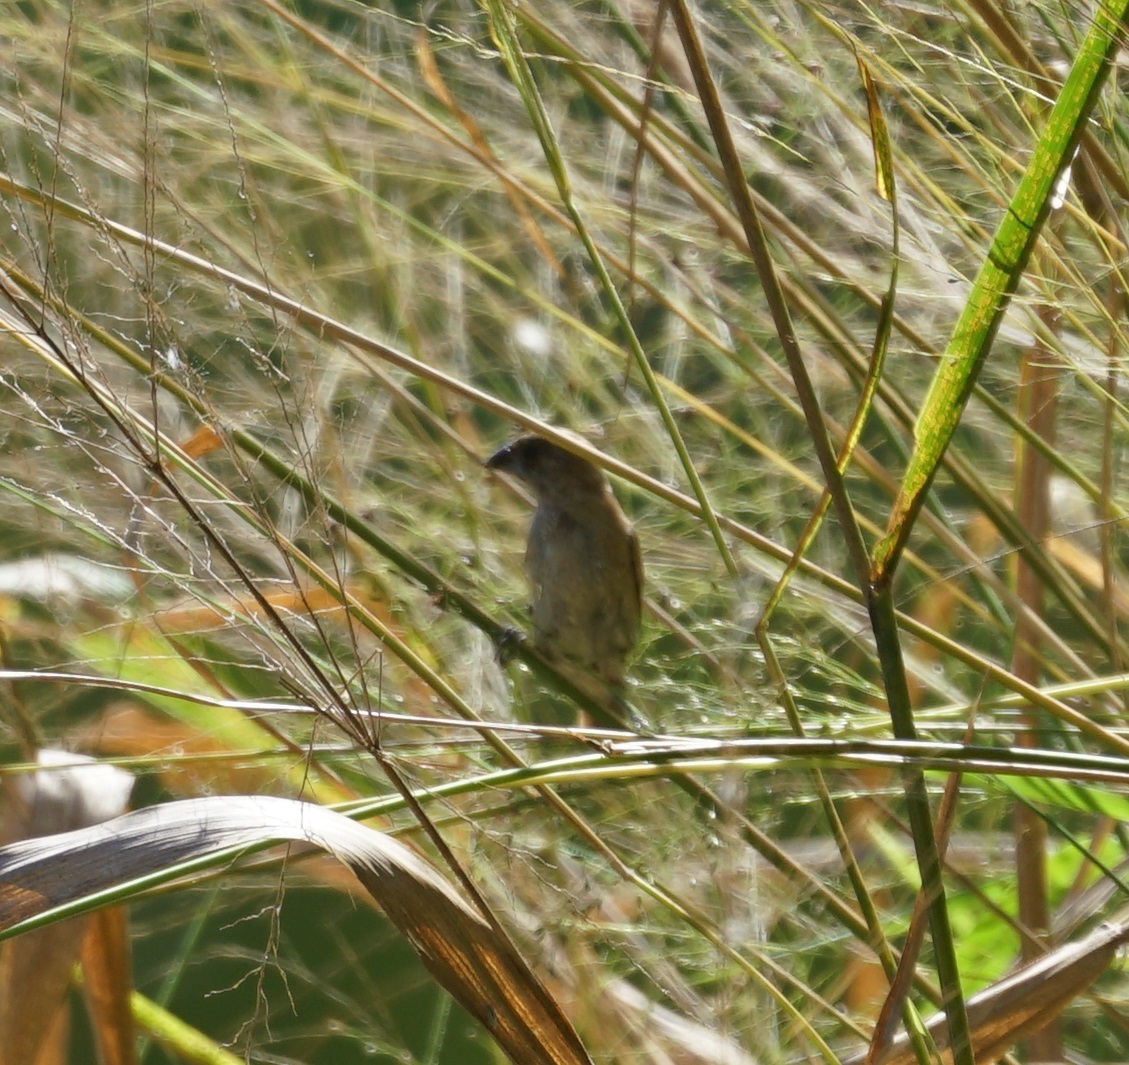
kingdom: Animalia
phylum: Chordata
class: Aves
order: Passeriformes
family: Estrildidae
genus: Lonchura
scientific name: Lonchura punctulata
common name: Scaly-breasted munia
